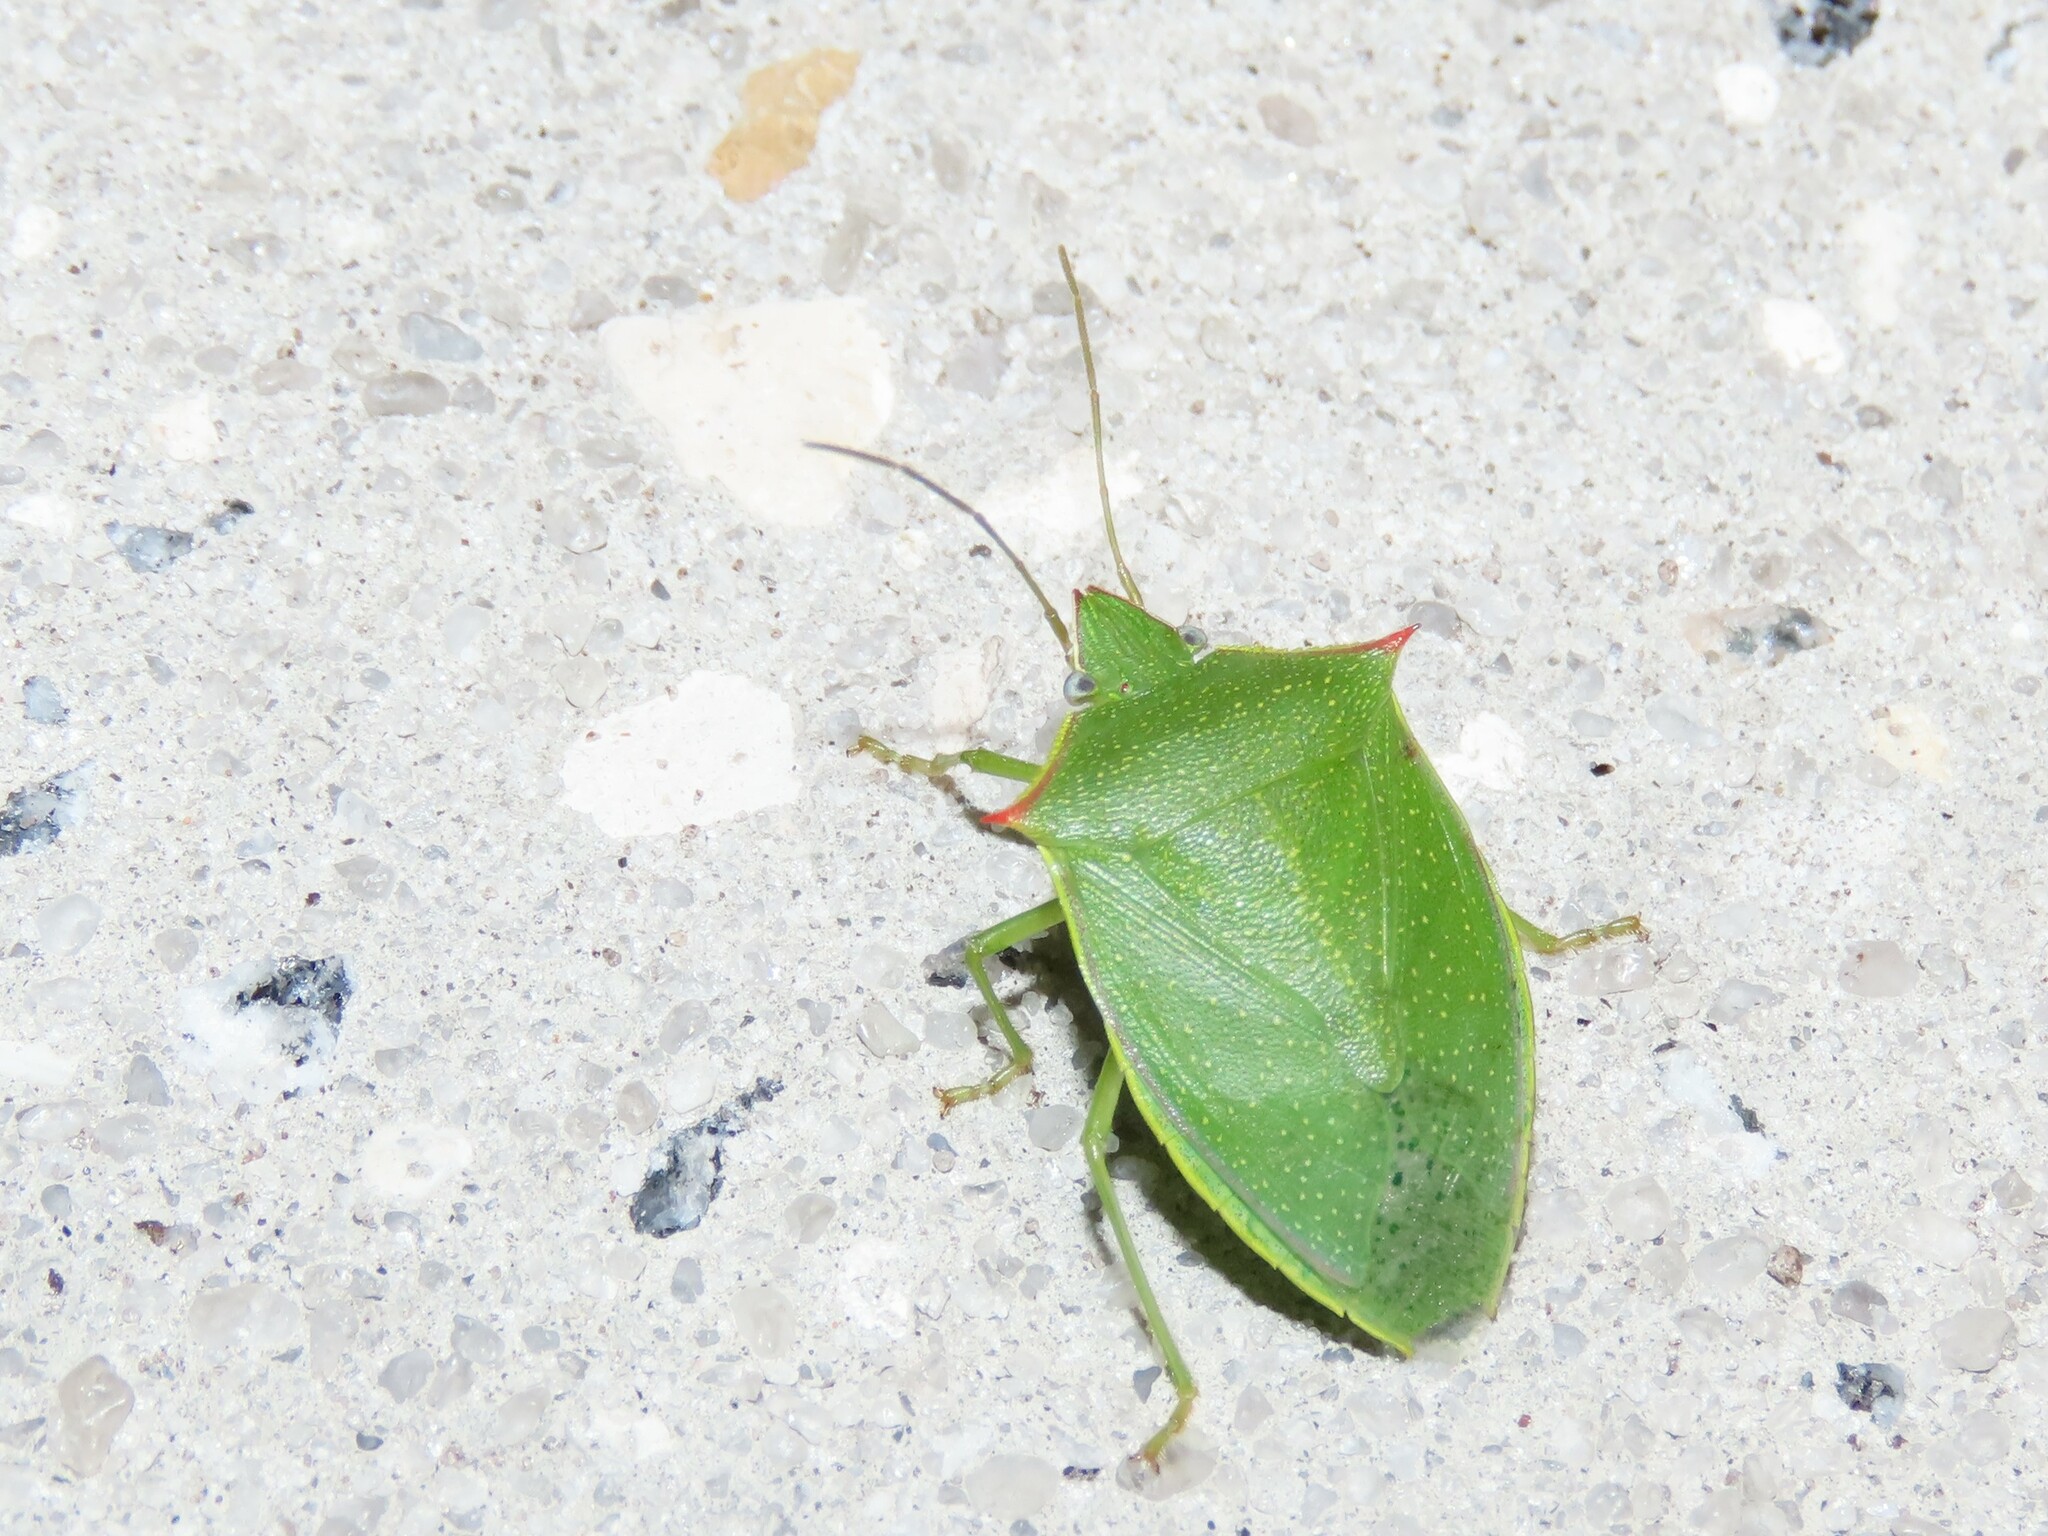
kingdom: Animalia
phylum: Arthropoda
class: Insecta
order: Hemiptera
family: Pentatomidae
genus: Loxa
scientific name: Loxa flavicollis
